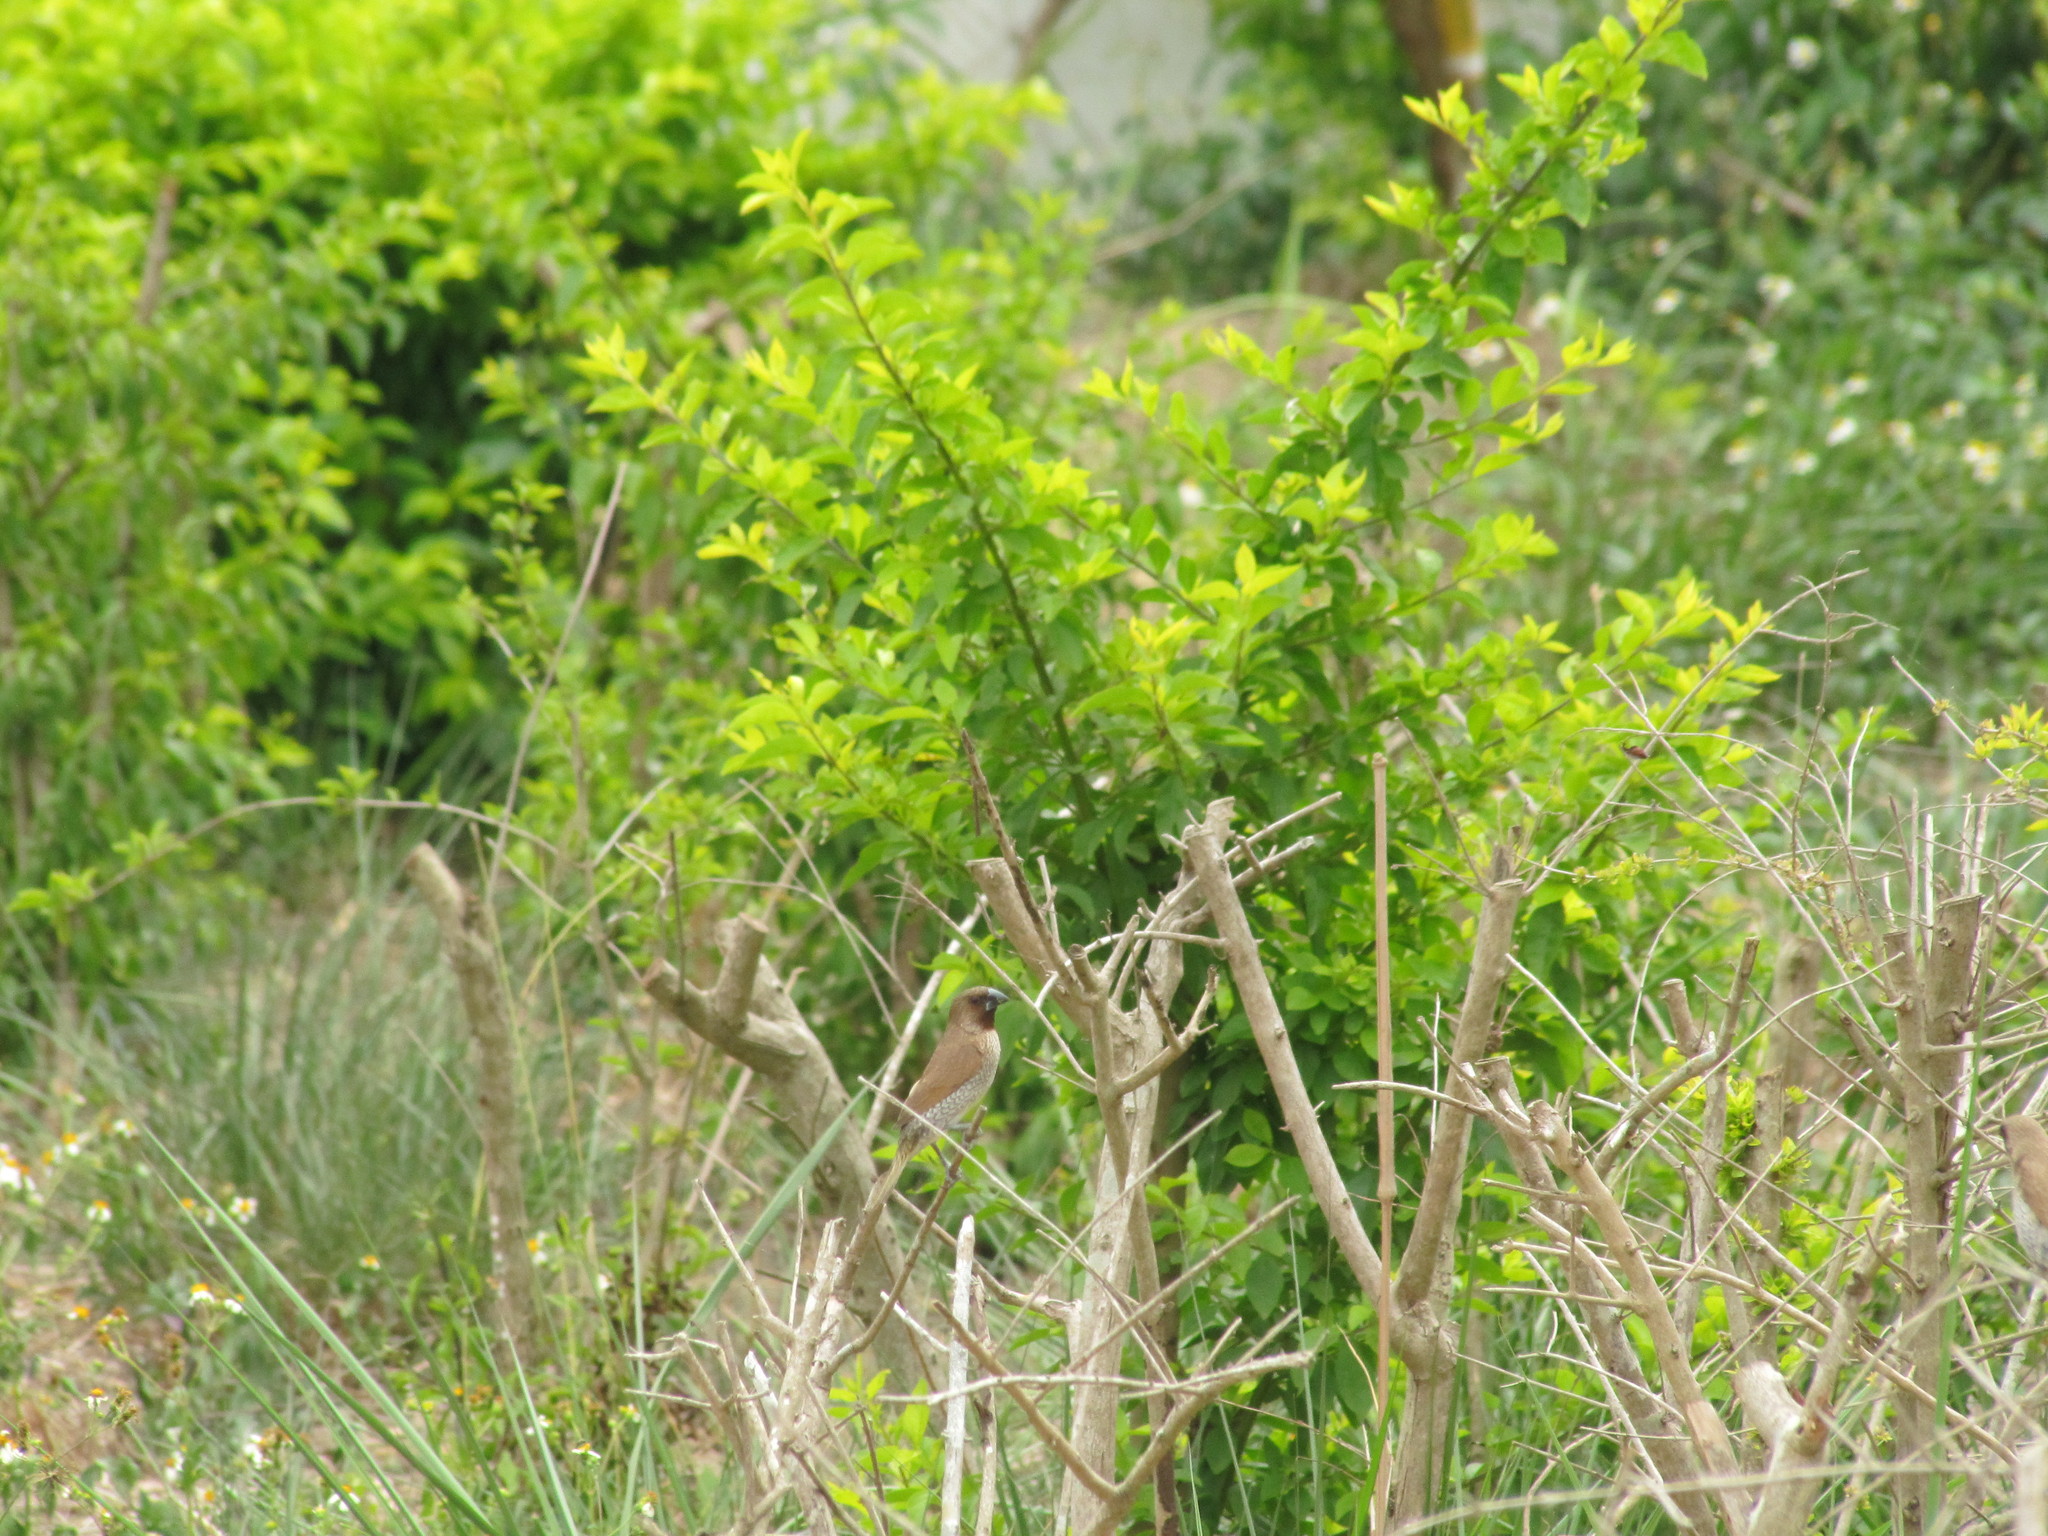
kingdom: Animalia
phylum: Chordata
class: Aves
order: Passeriformes
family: Estrildidae
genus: Lonchura
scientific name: Lonchura punctulata
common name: Scaly-breasted munia
